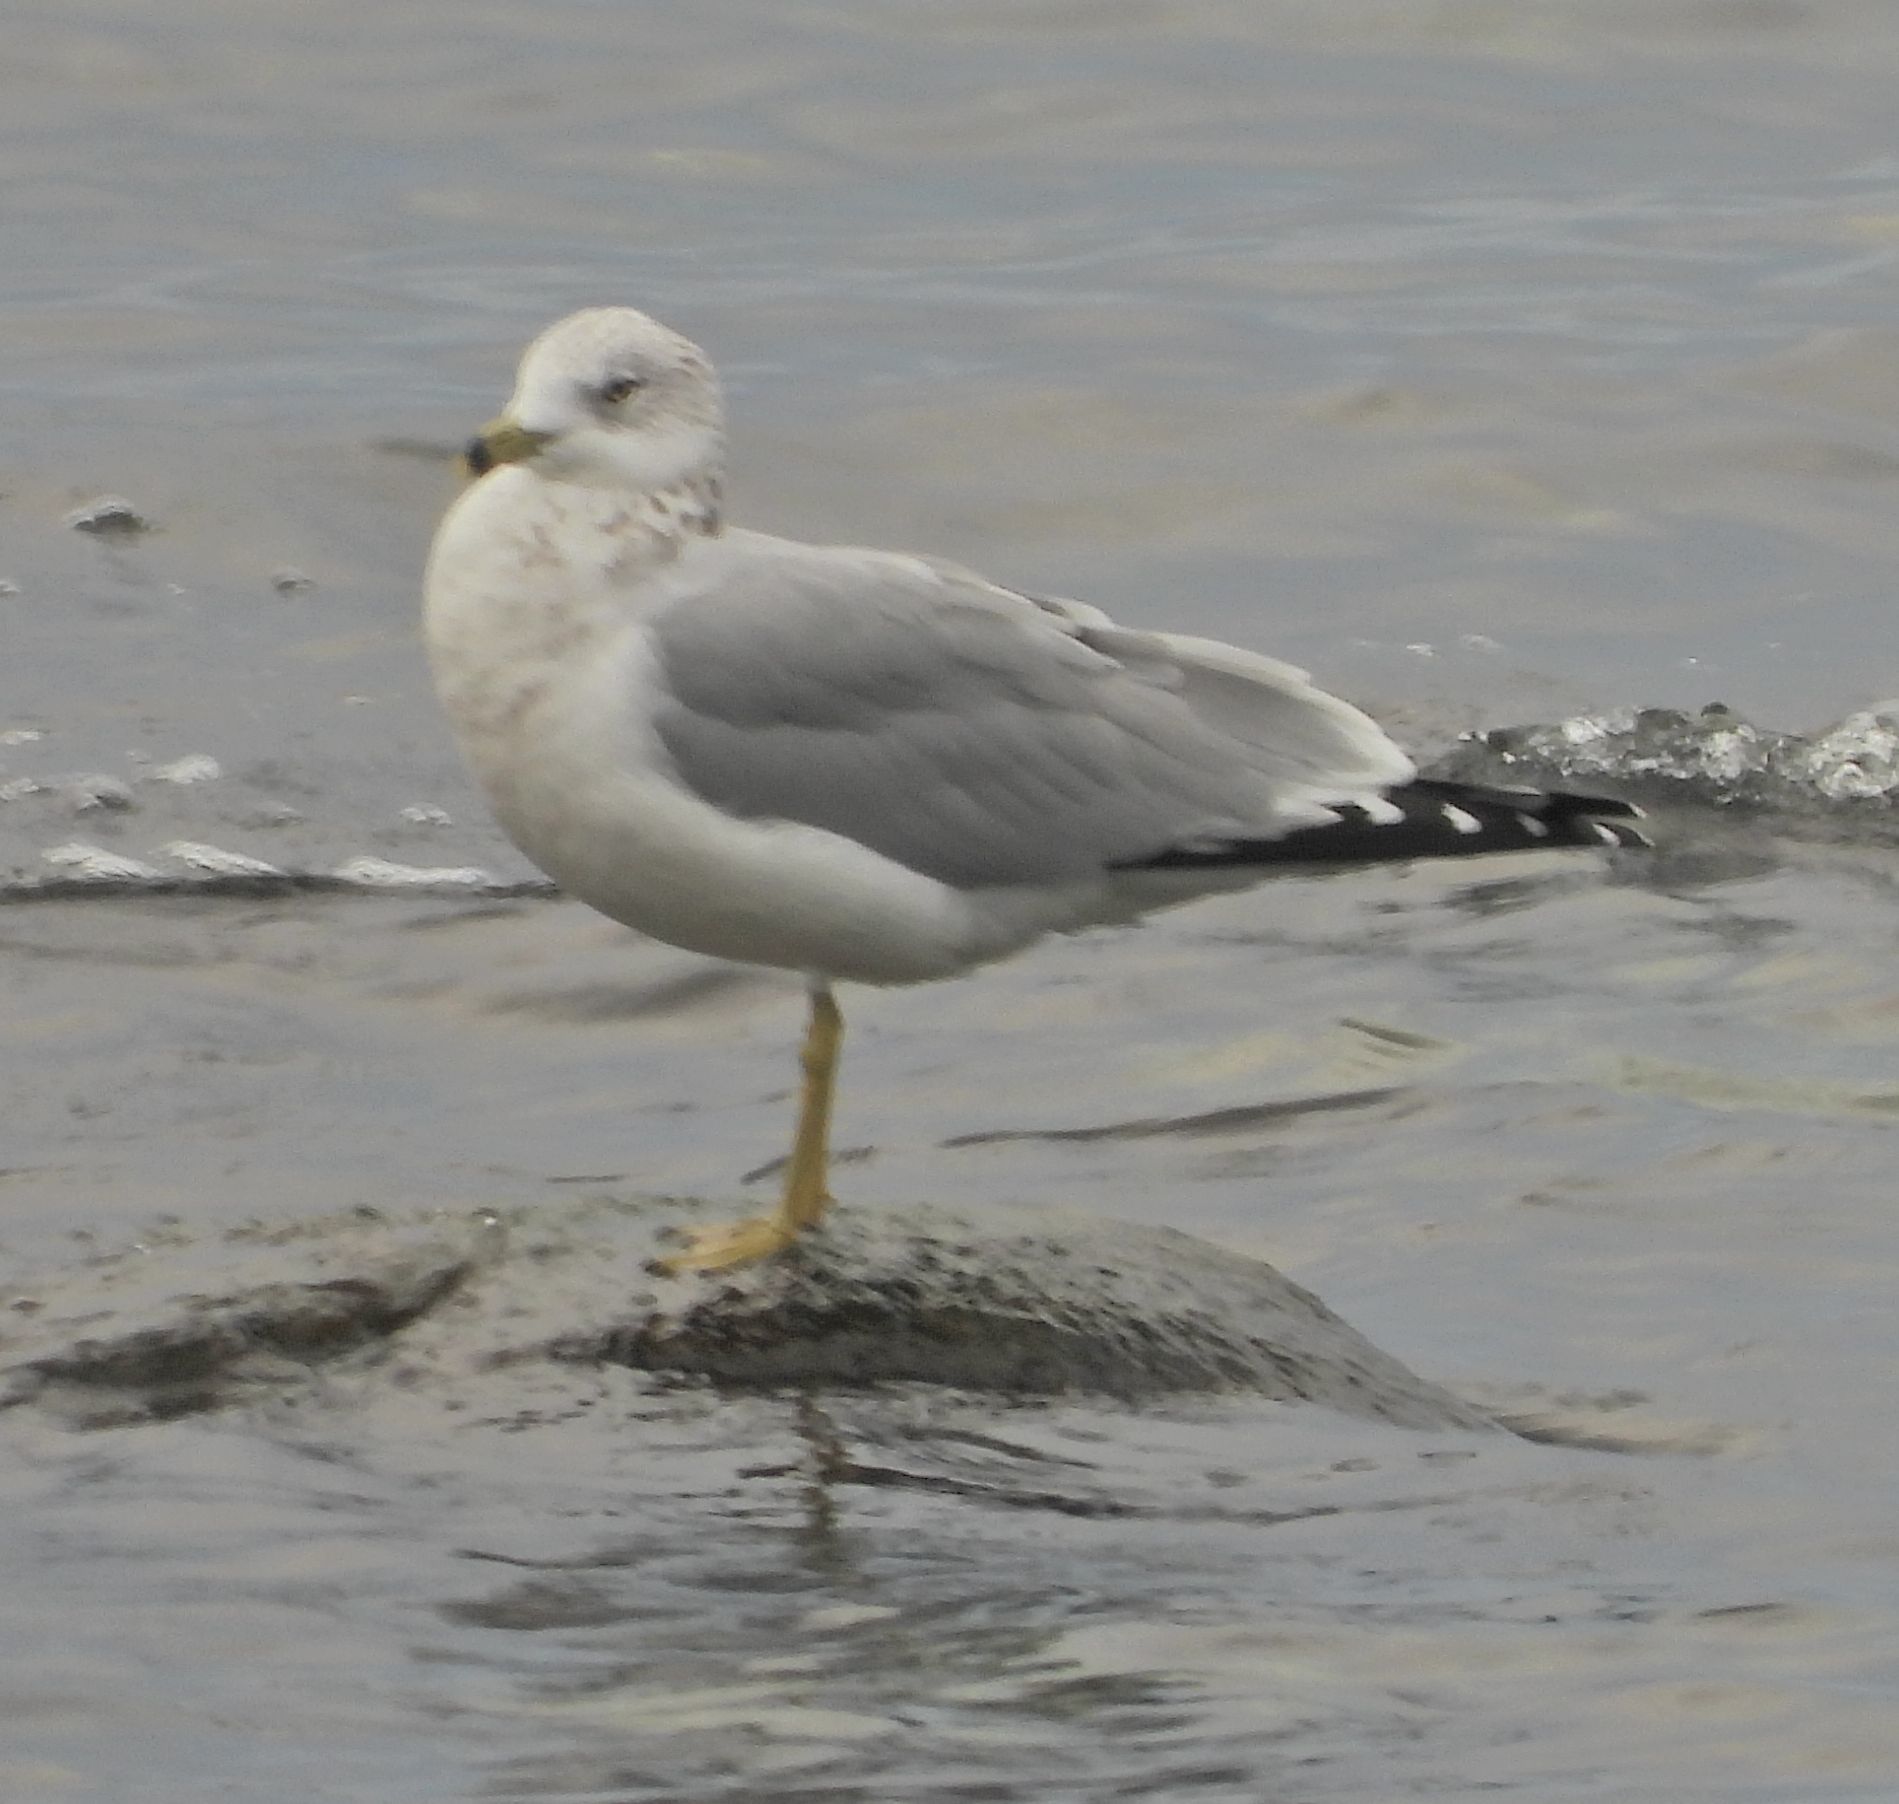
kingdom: Animalia
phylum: Chordata
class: Aves
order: Charadriiformes
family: Laridae
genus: Larus
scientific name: Larus delawarensis
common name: Ring-billed gull
